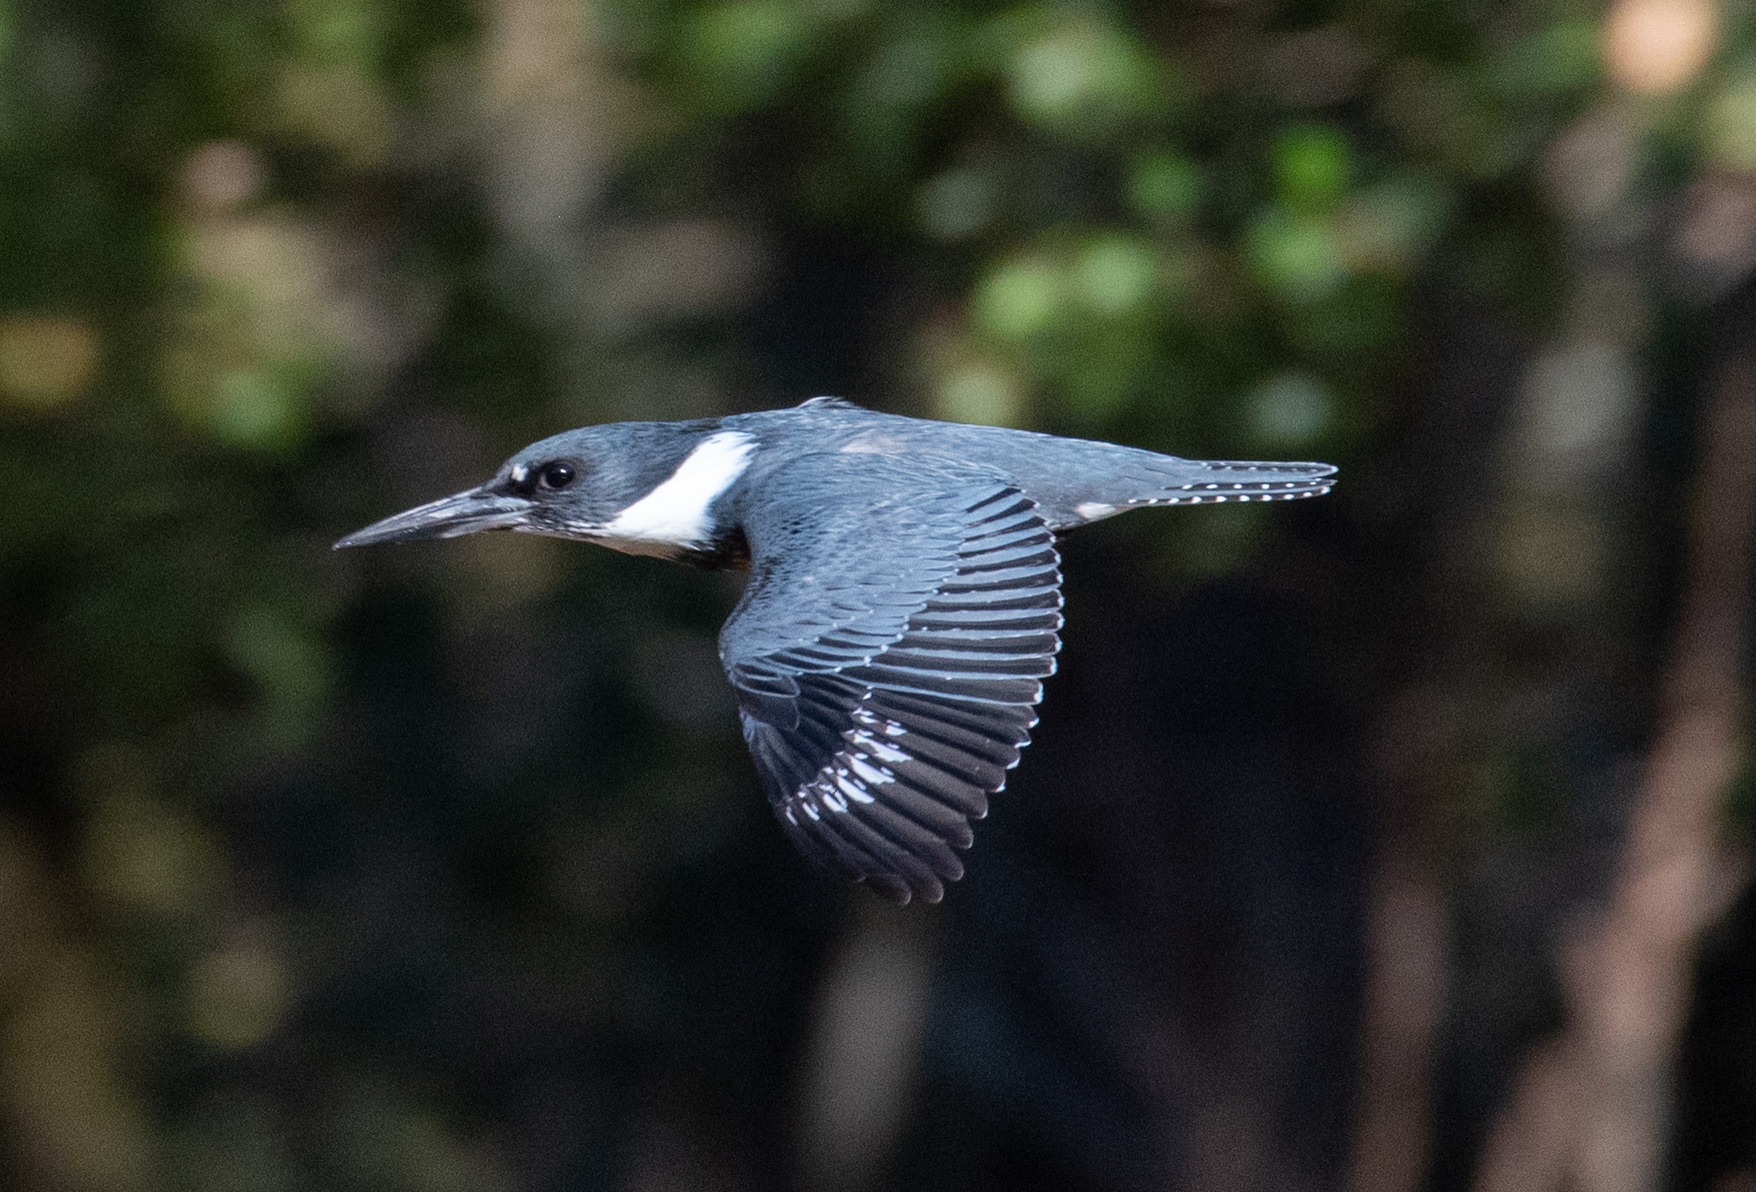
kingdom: Animalia
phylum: Chordata
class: Aves
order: Coraciiformes
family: Alcedinidae
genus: Megaceryle
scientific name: Megaceryle alcyon
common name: Belted kingfisher
